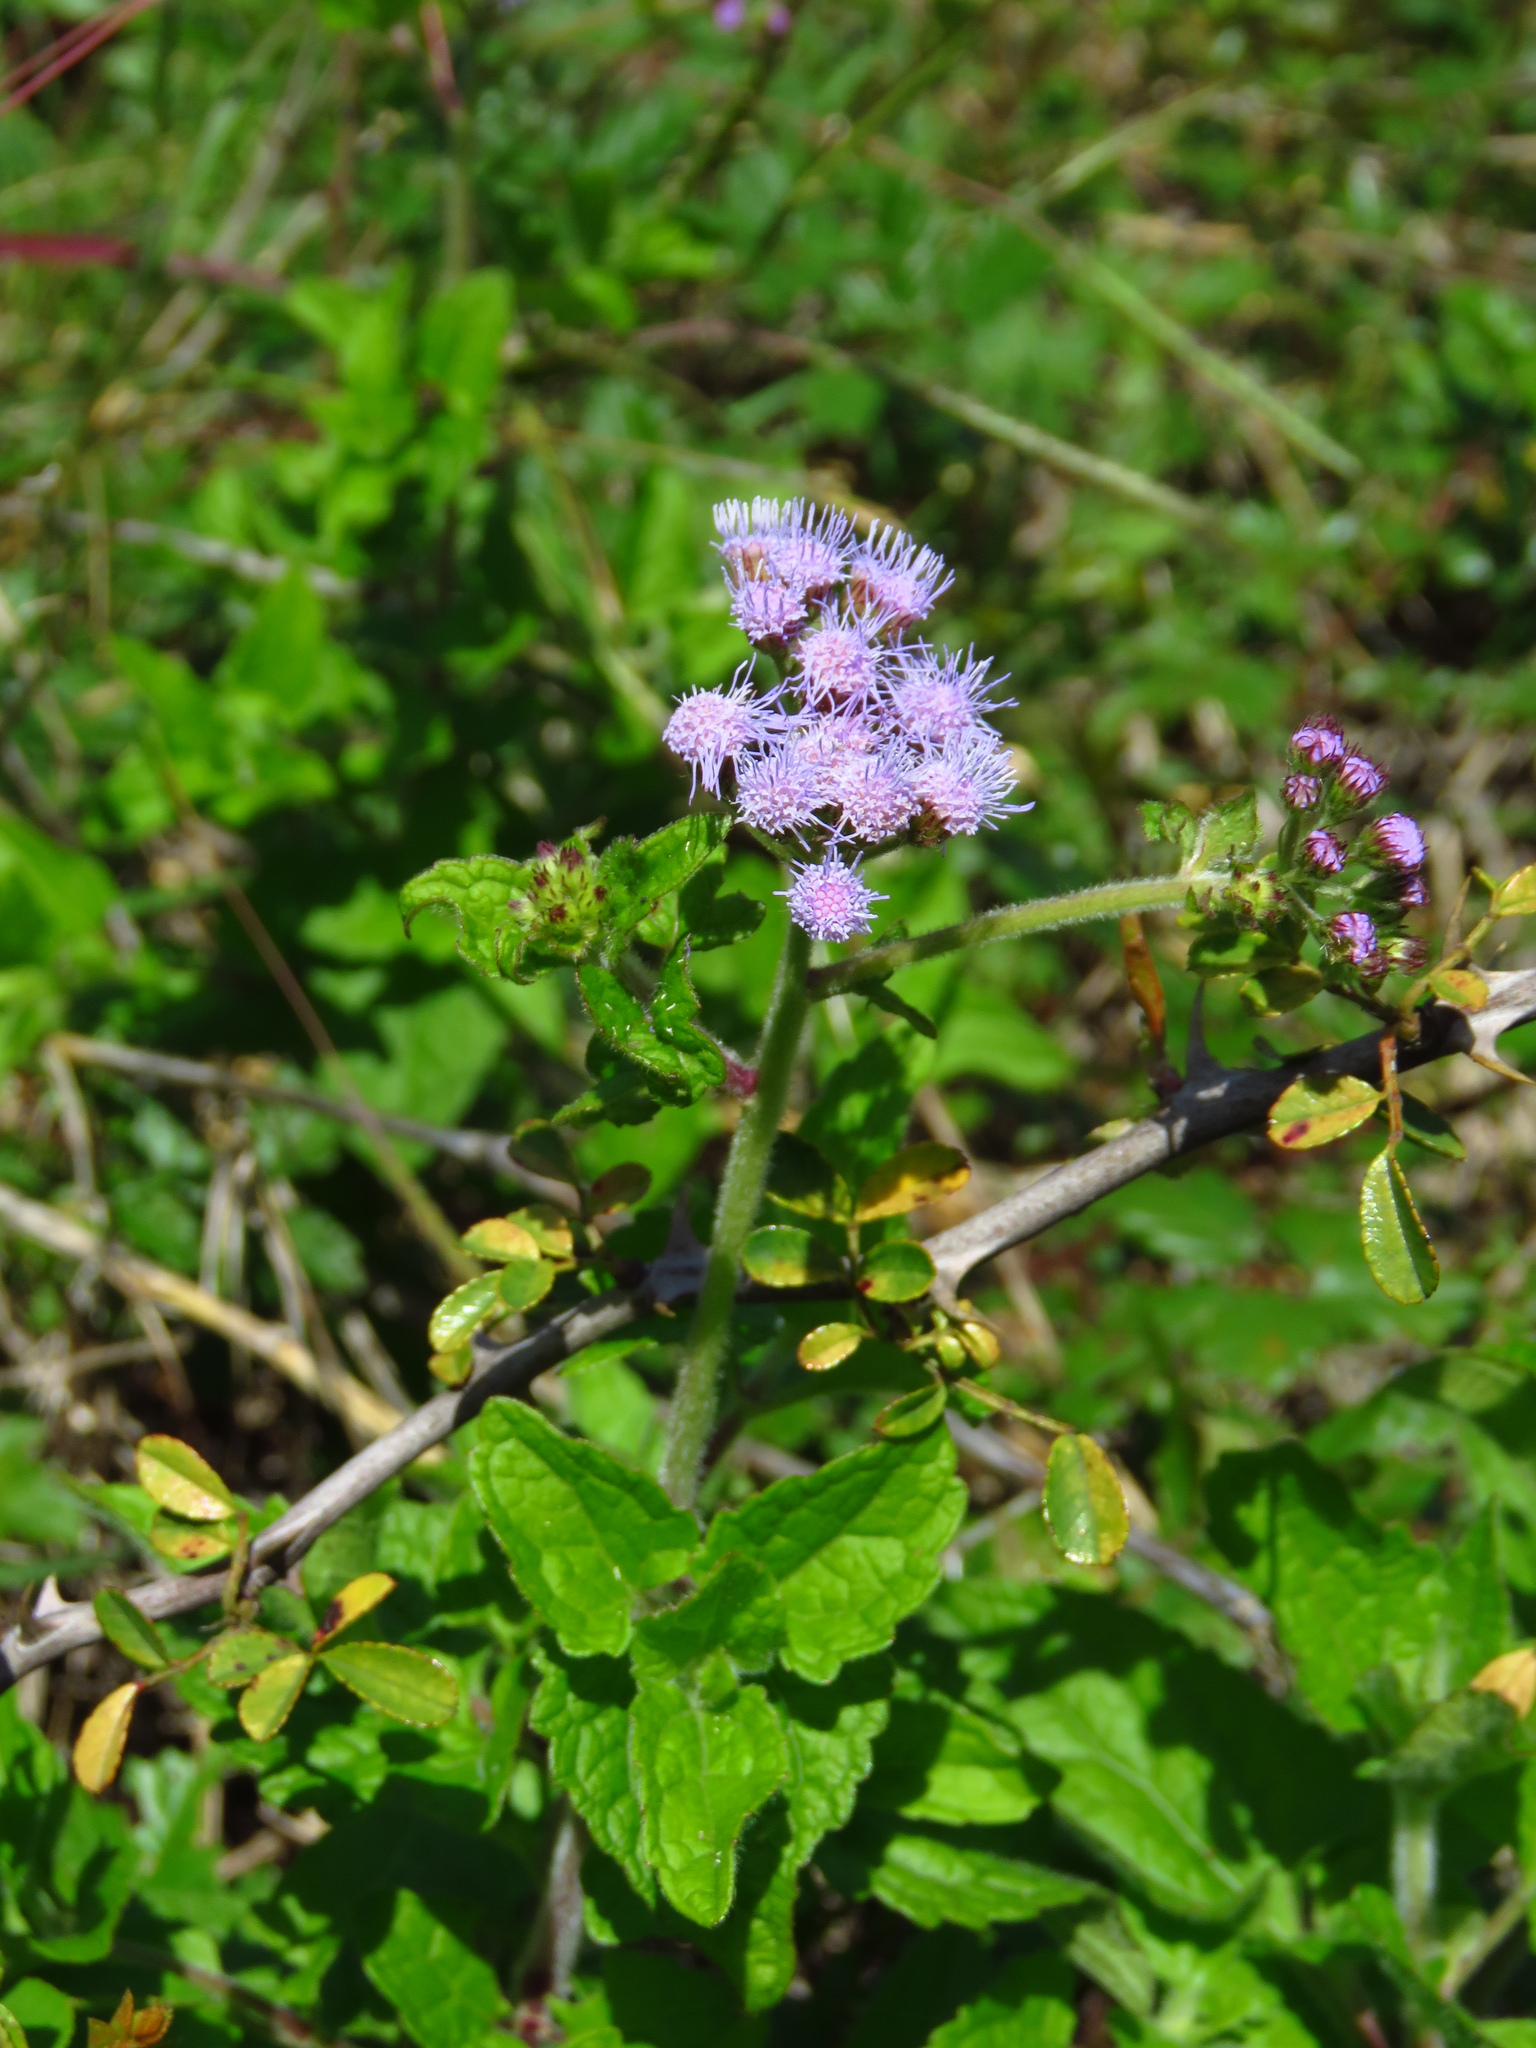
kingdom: Plantae
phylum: Tracheophyta
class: Magnoliopsida
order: Asterales
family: Asteraceae
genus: Conoclinium
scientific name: Conoclinium coelestinum
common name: Blue mistflower
